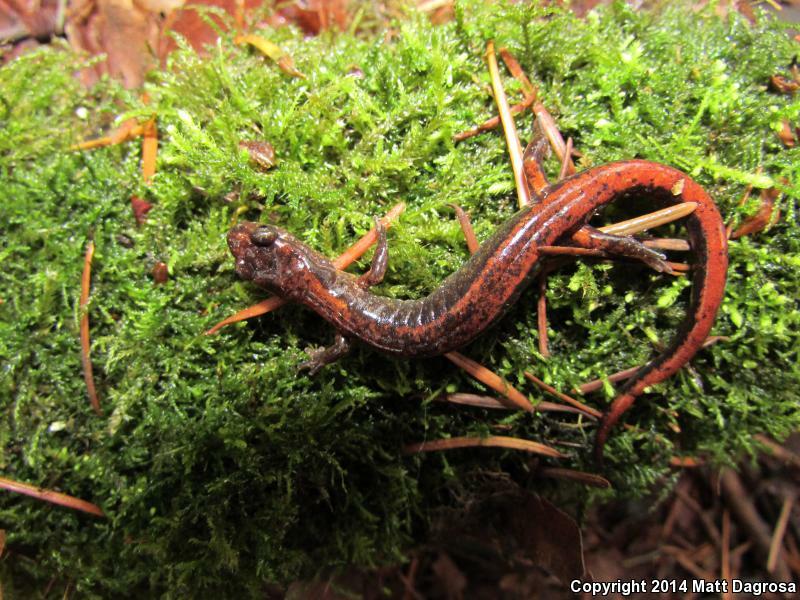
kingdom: Animalia
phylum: Chordata
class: Amphibia
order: Caudata
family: Plethodontidae
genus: Plethodon
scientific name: Plethodon vehiculum
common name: Western red-backed salamander
